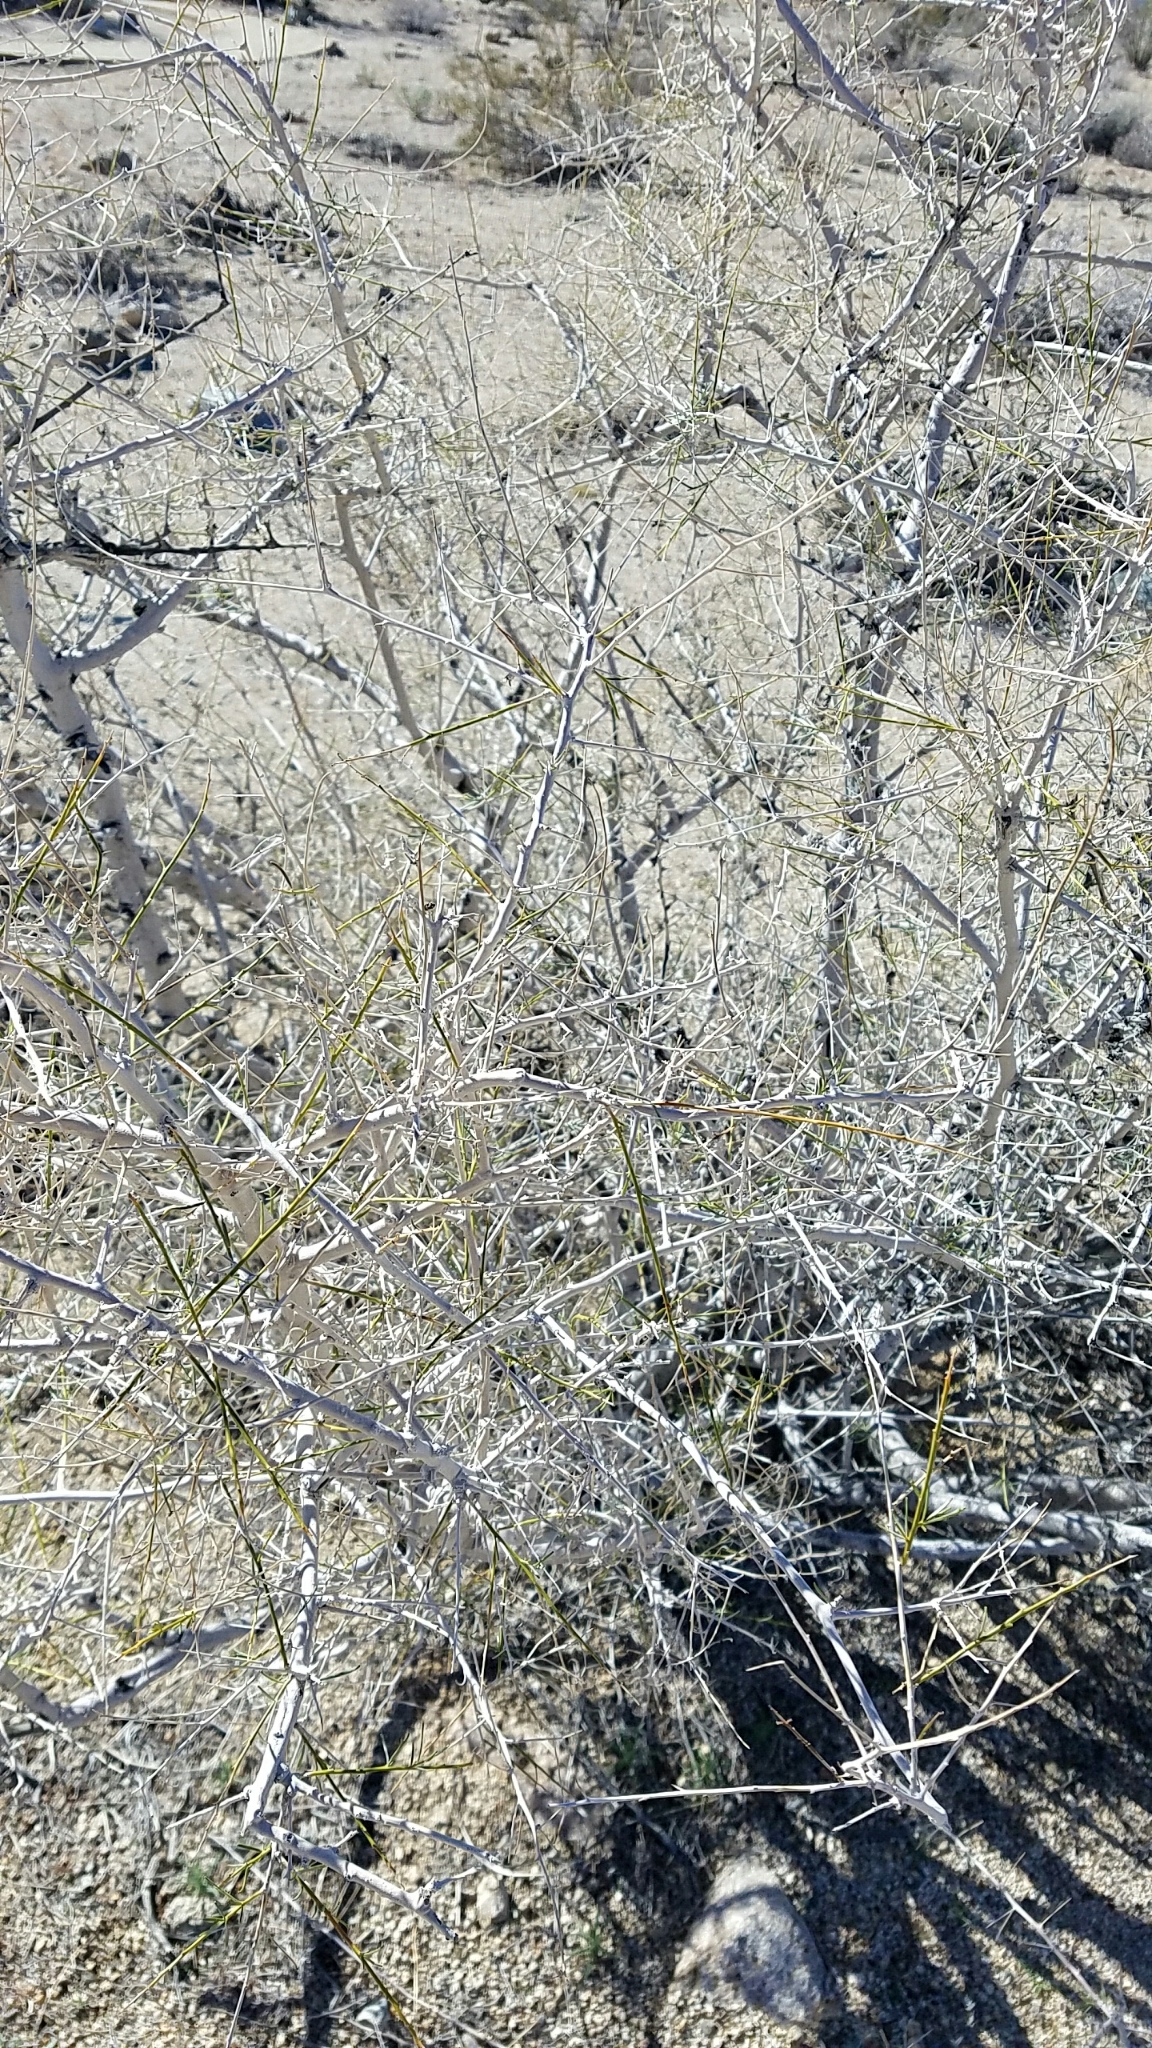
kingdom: Plantae
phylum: Tracheophyta
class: Magnoliopsida
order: Fabales
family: Fabaceae
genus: Psorothamnus
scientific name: Psorothamnus schottii
